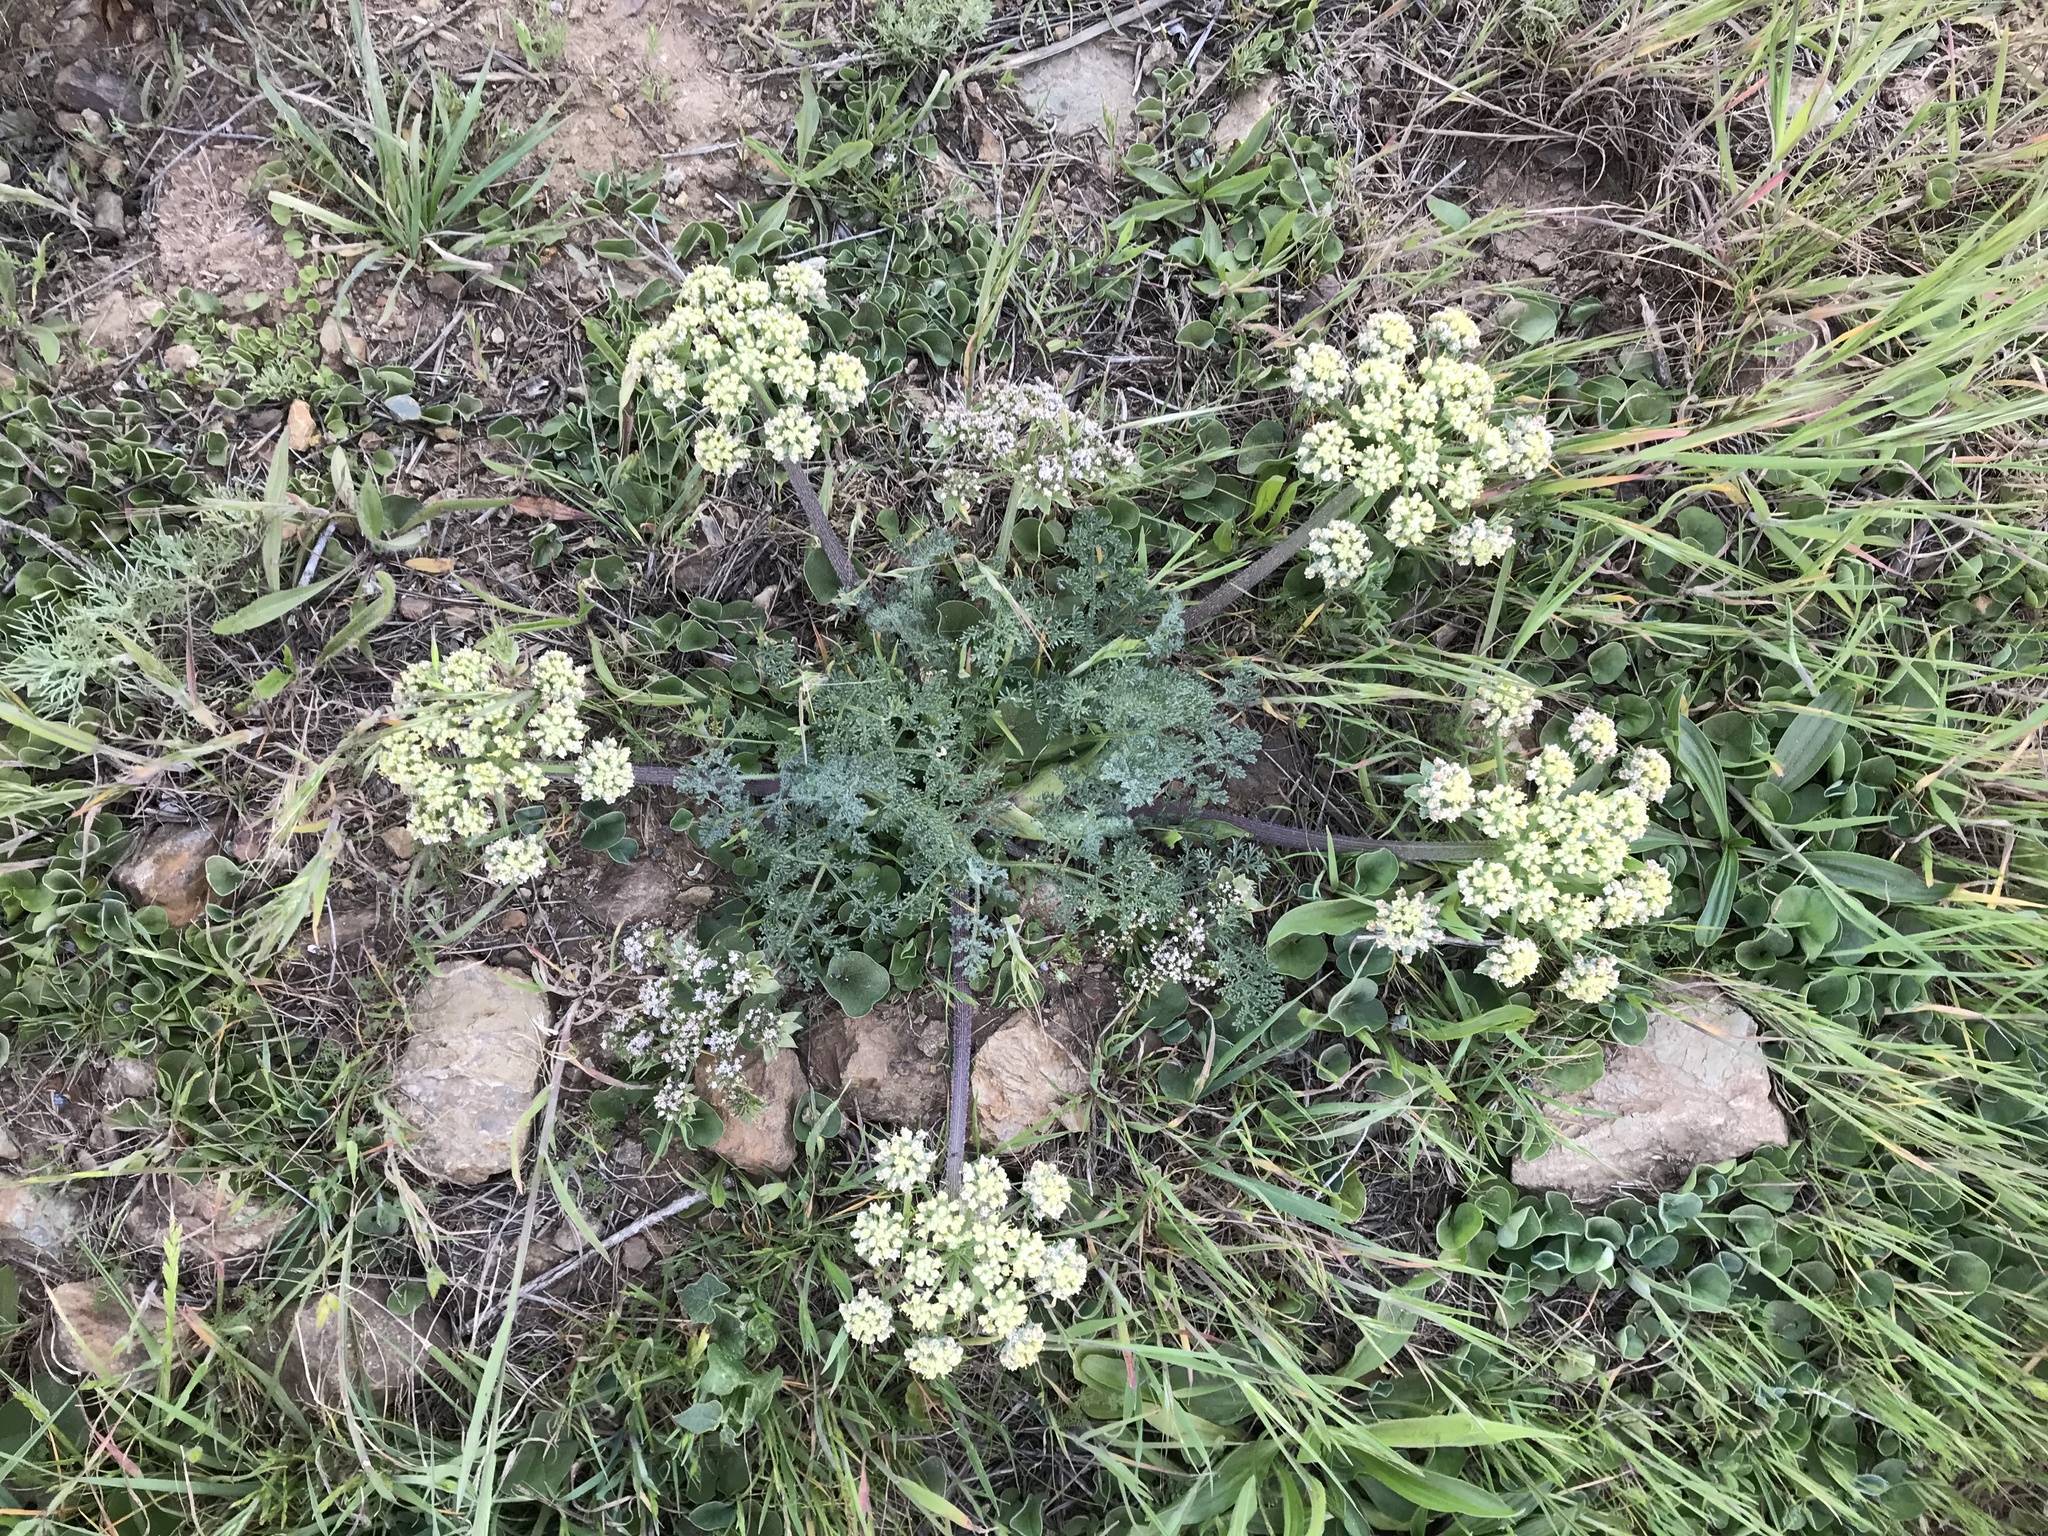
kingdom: Plantae
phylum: Tracheophyta
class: Magnoliopsida
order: Apiales
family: Apiaceae
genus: Lomatium
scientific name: Lomatium dasycarpum
